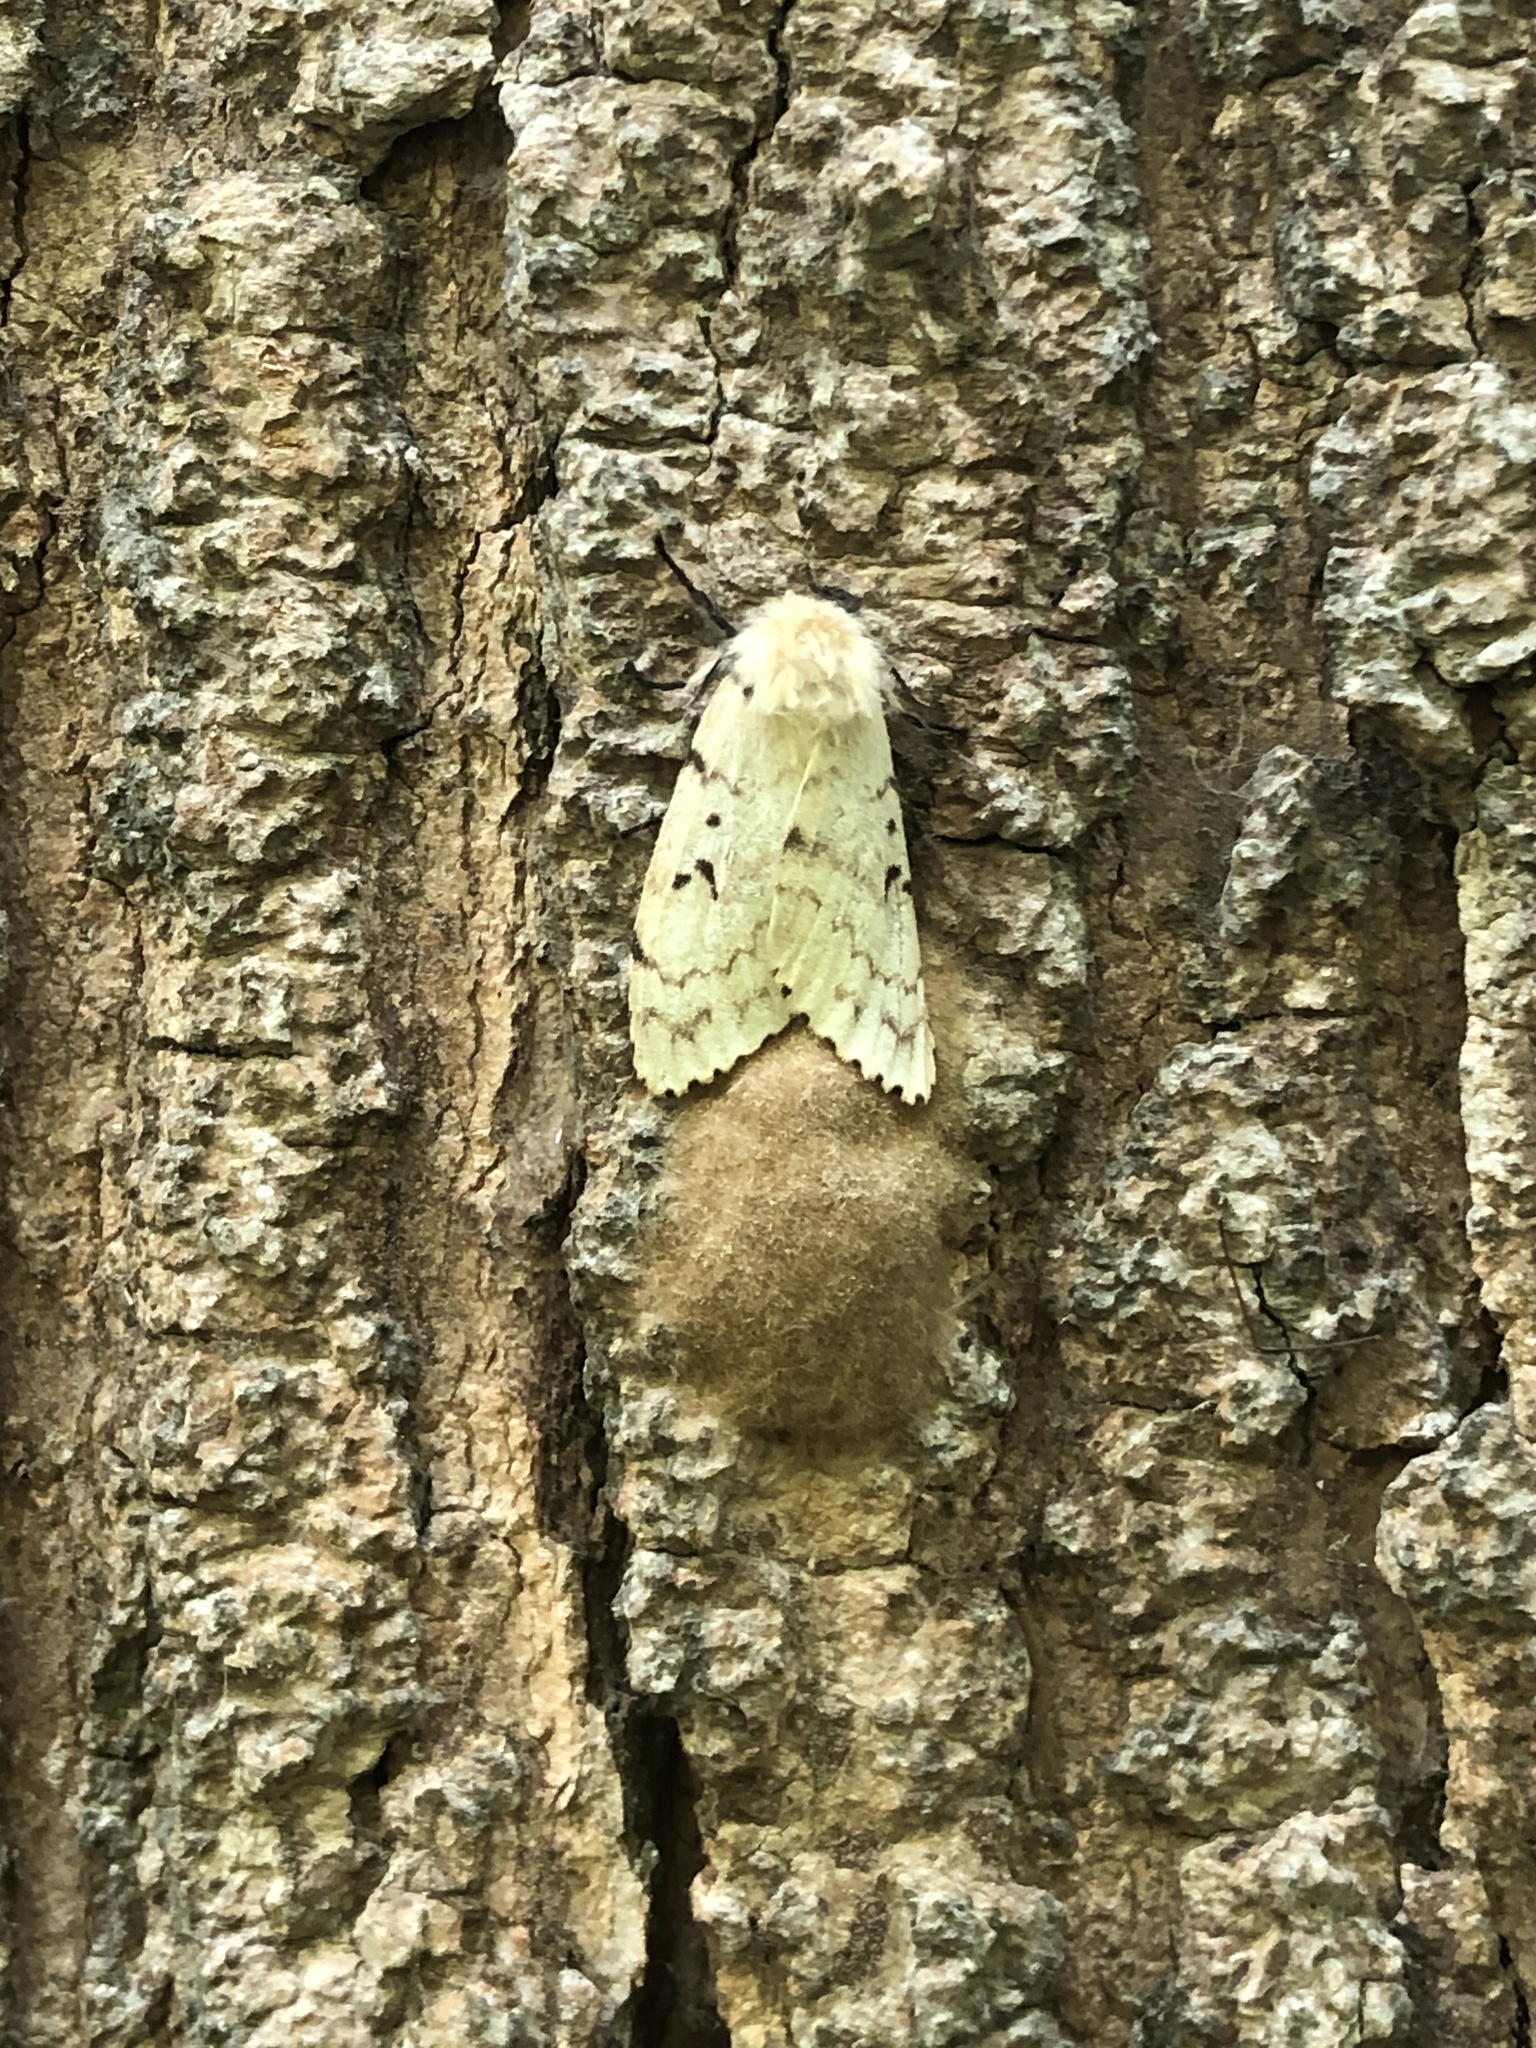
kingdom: Animalia
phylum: Arthropoda
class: Insecta
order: Lepidoptera
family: Erebidae
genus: Lymantria
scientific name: Lymantria dispar
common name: Gypsy moth
